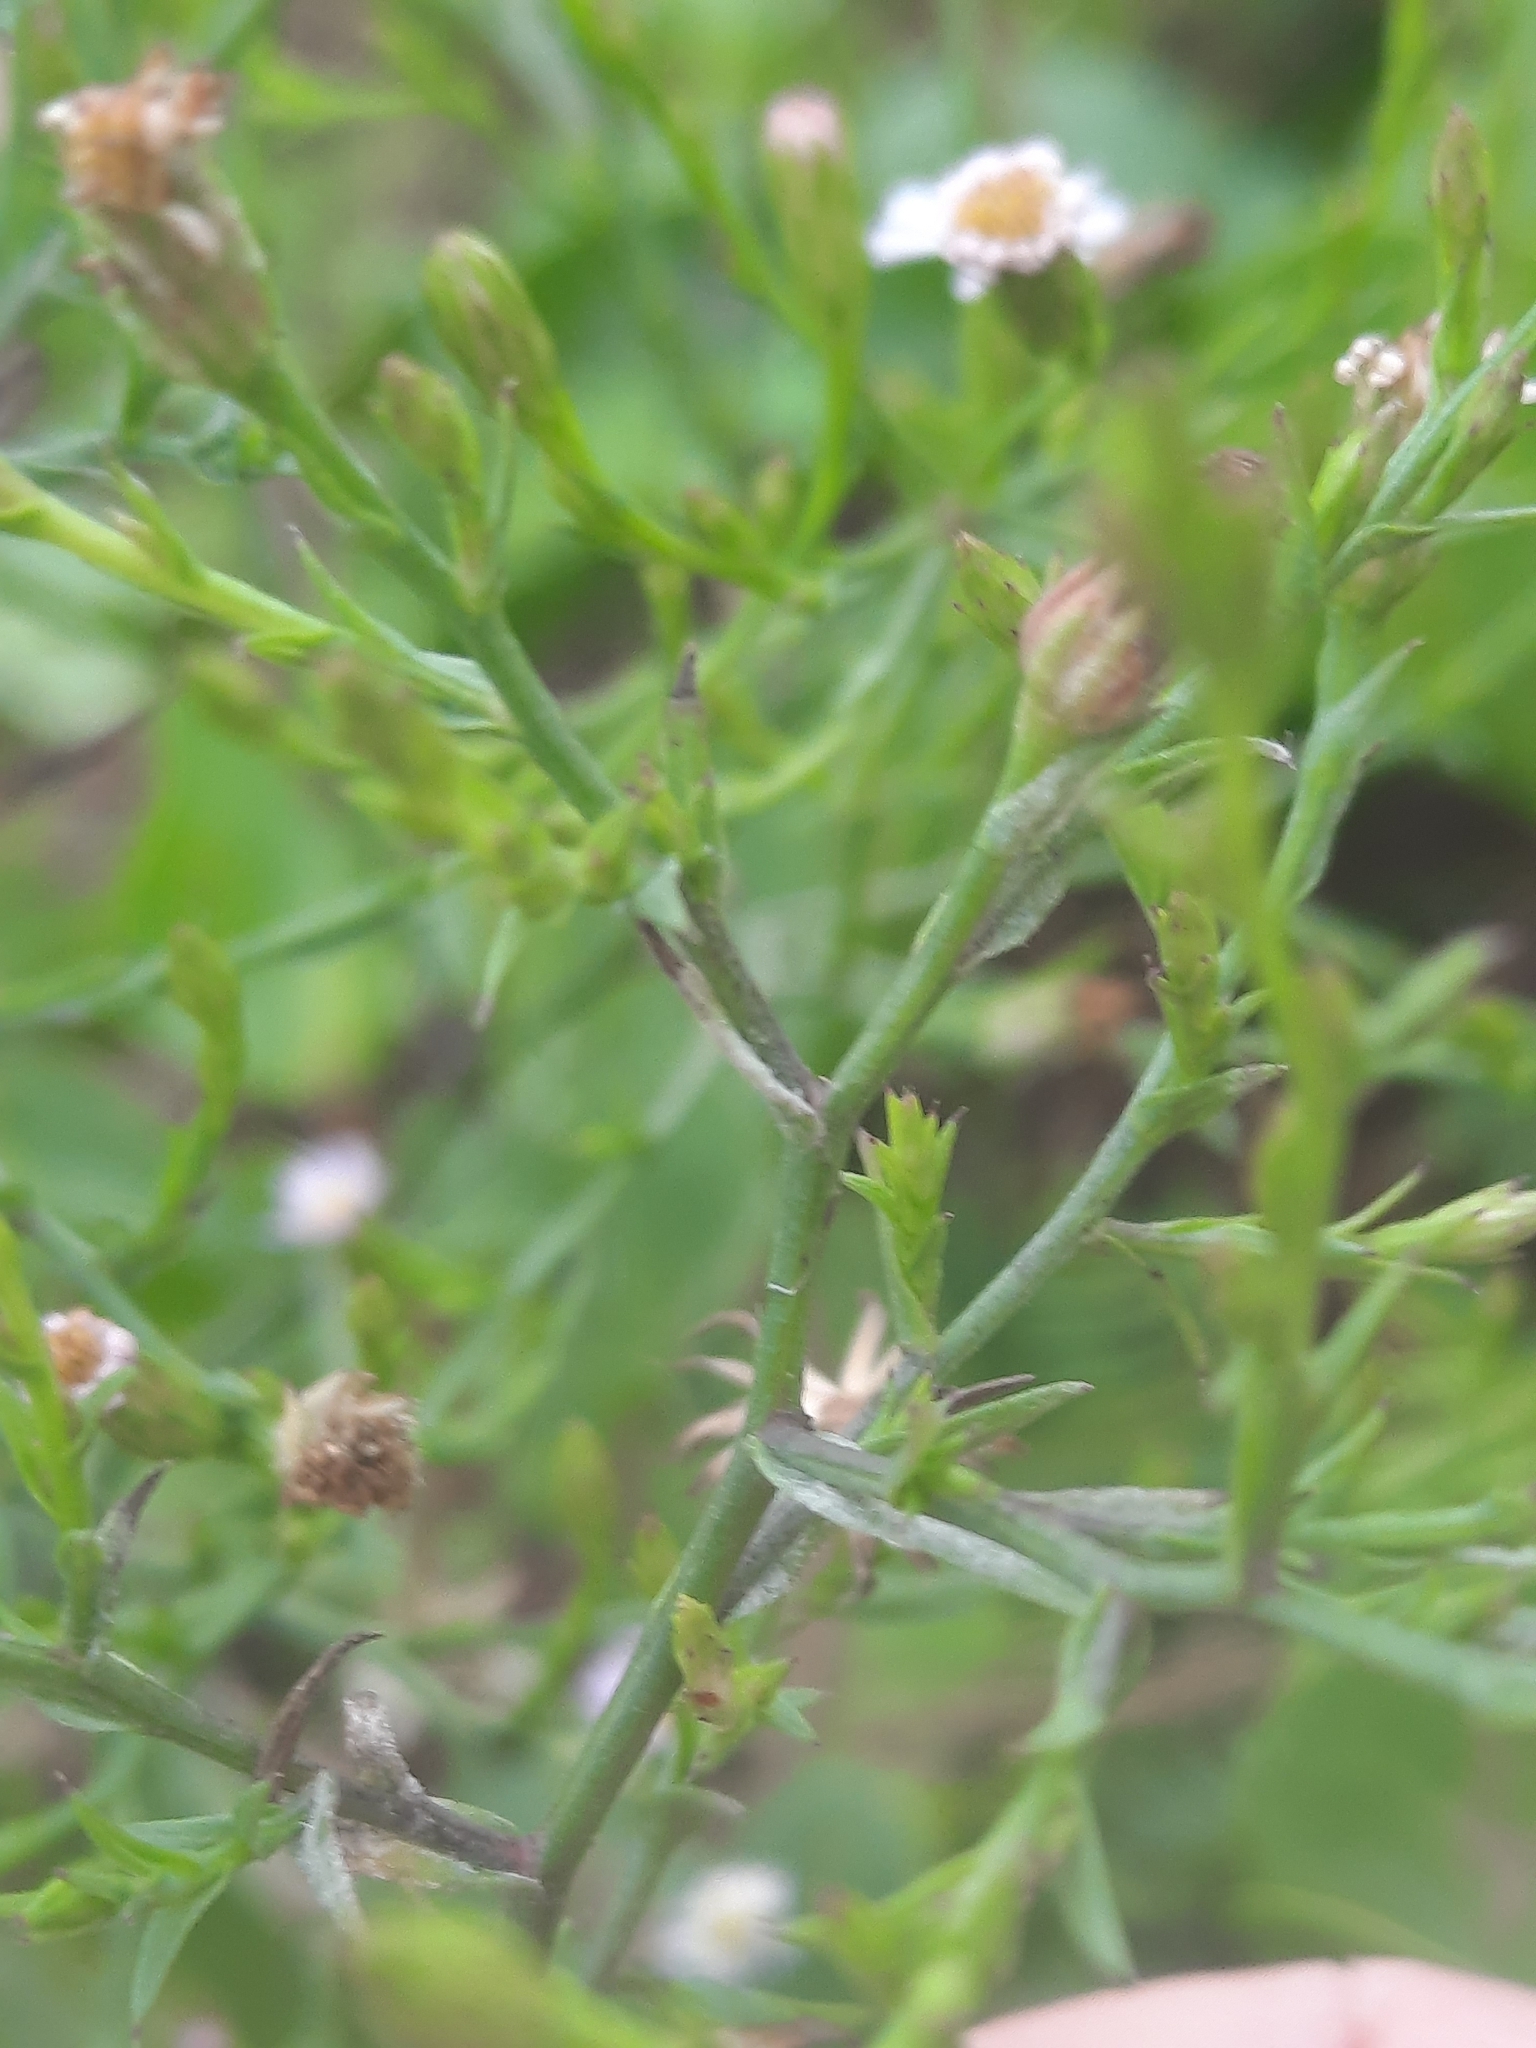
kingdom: Plantae
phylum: Tracheophyta
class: Magnoliopsida
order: Asterales
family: Asteraceae
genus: Symphyotrichum
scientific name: Symphyotrichum subulatum
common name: Annual saltmarsh aster
